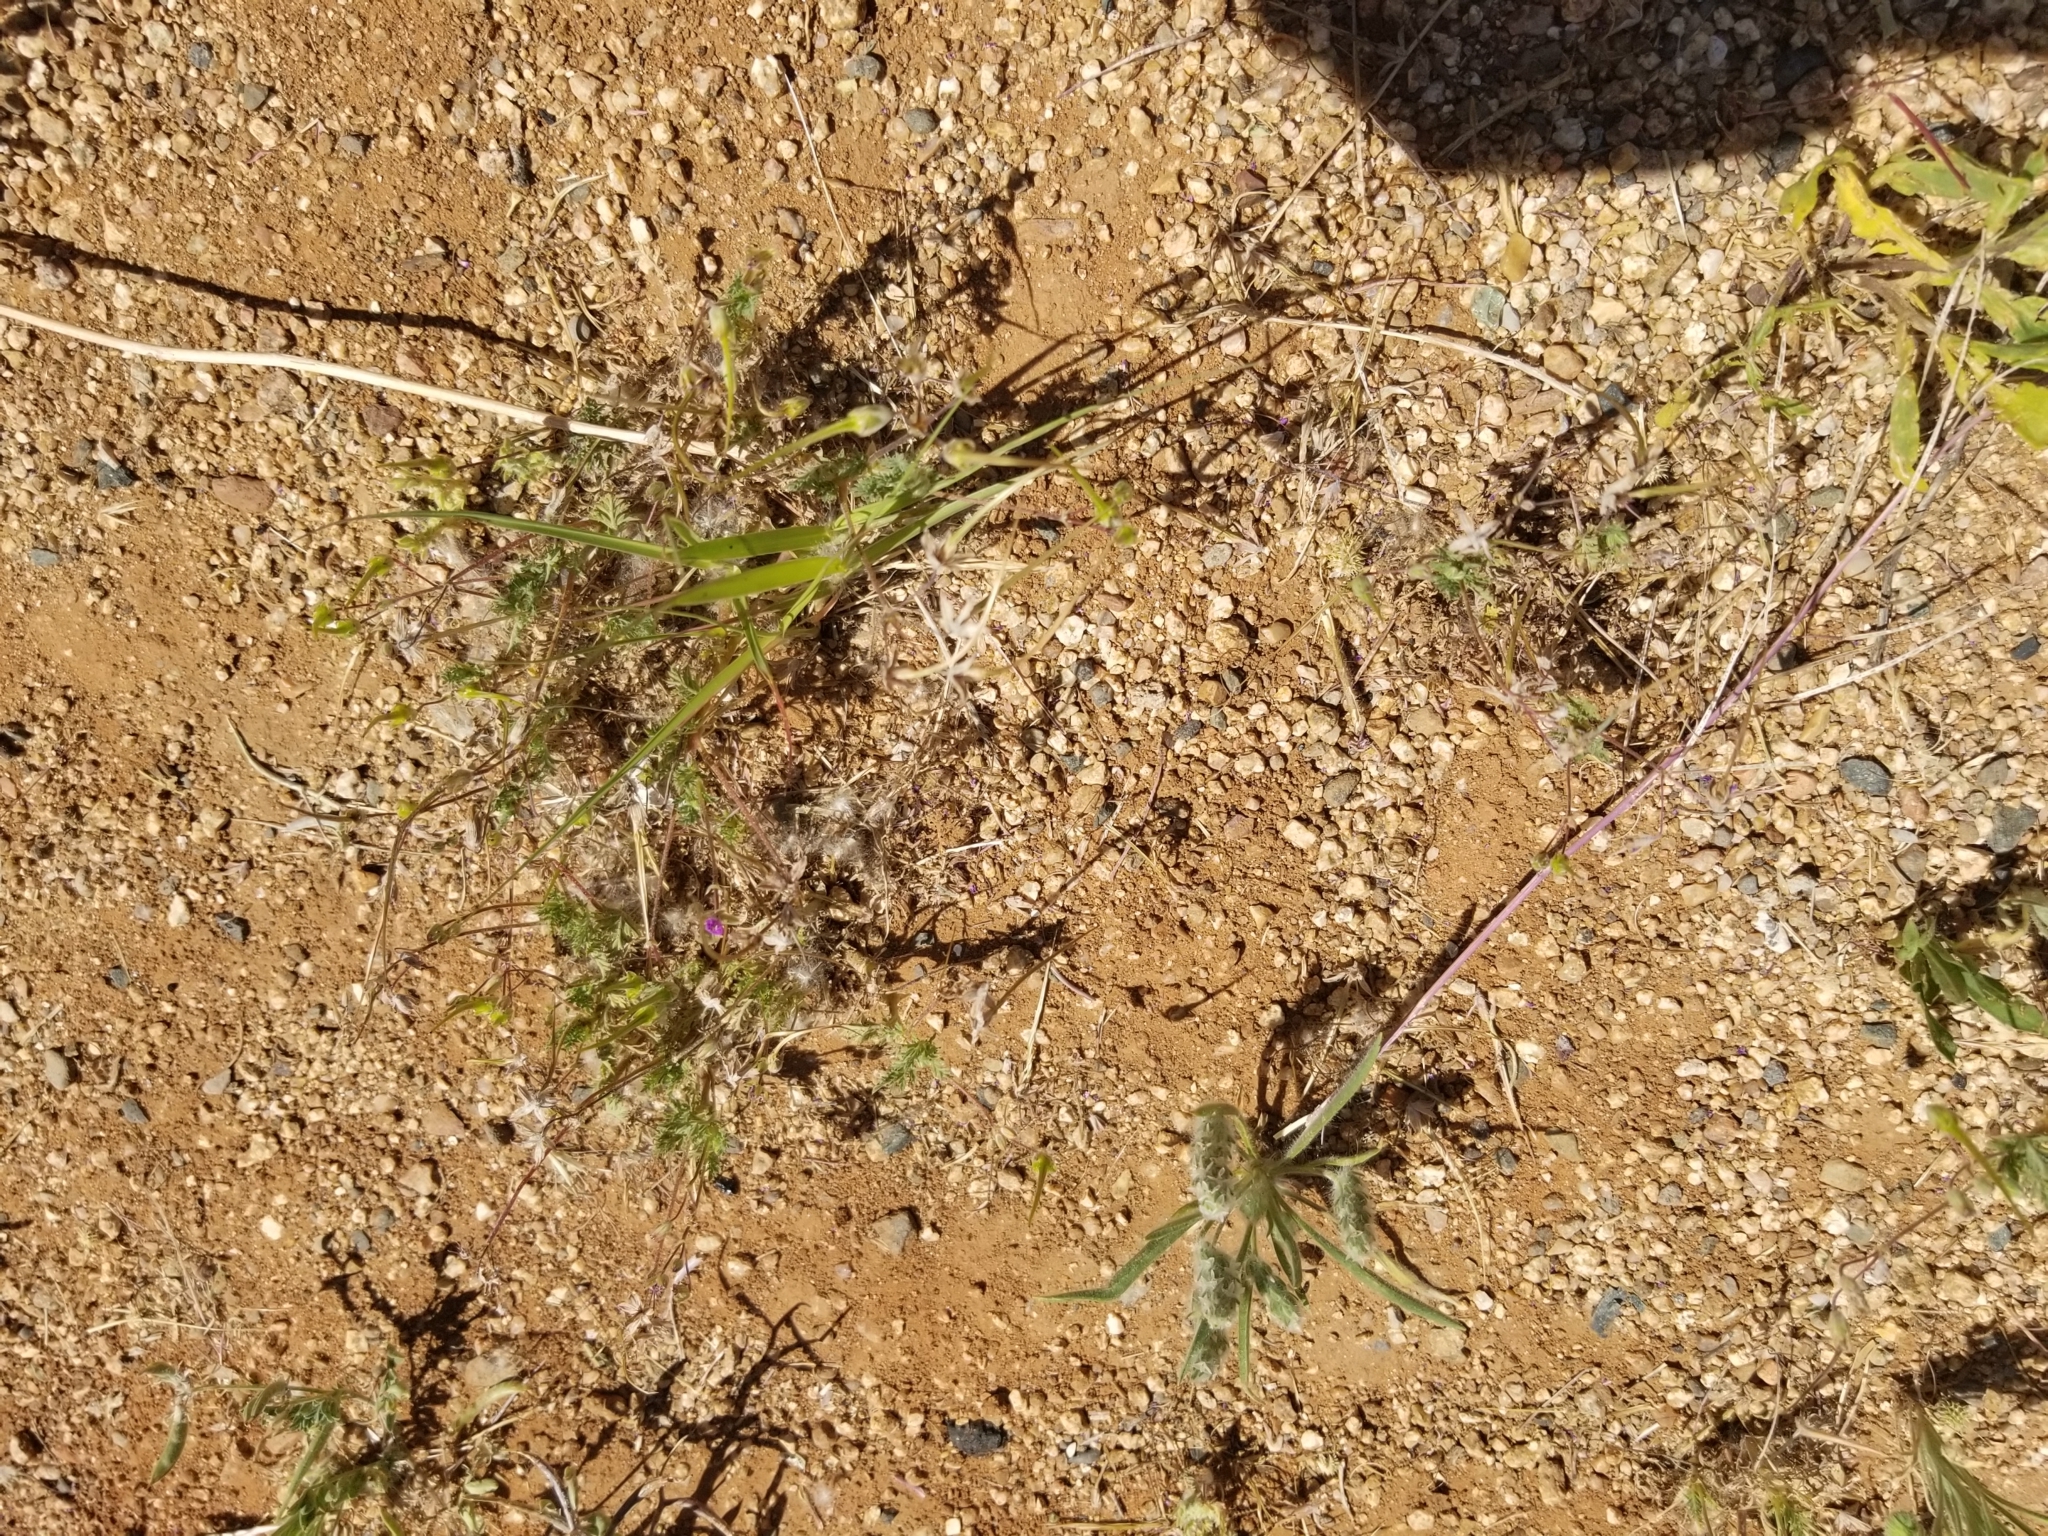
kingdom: Plantae
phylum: Tracheophyta
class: Magnoliopsida
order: Geraniales
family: Geraniaceae
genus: Erodium
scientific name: Erodium cicutarium
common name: Common stork's-bill
